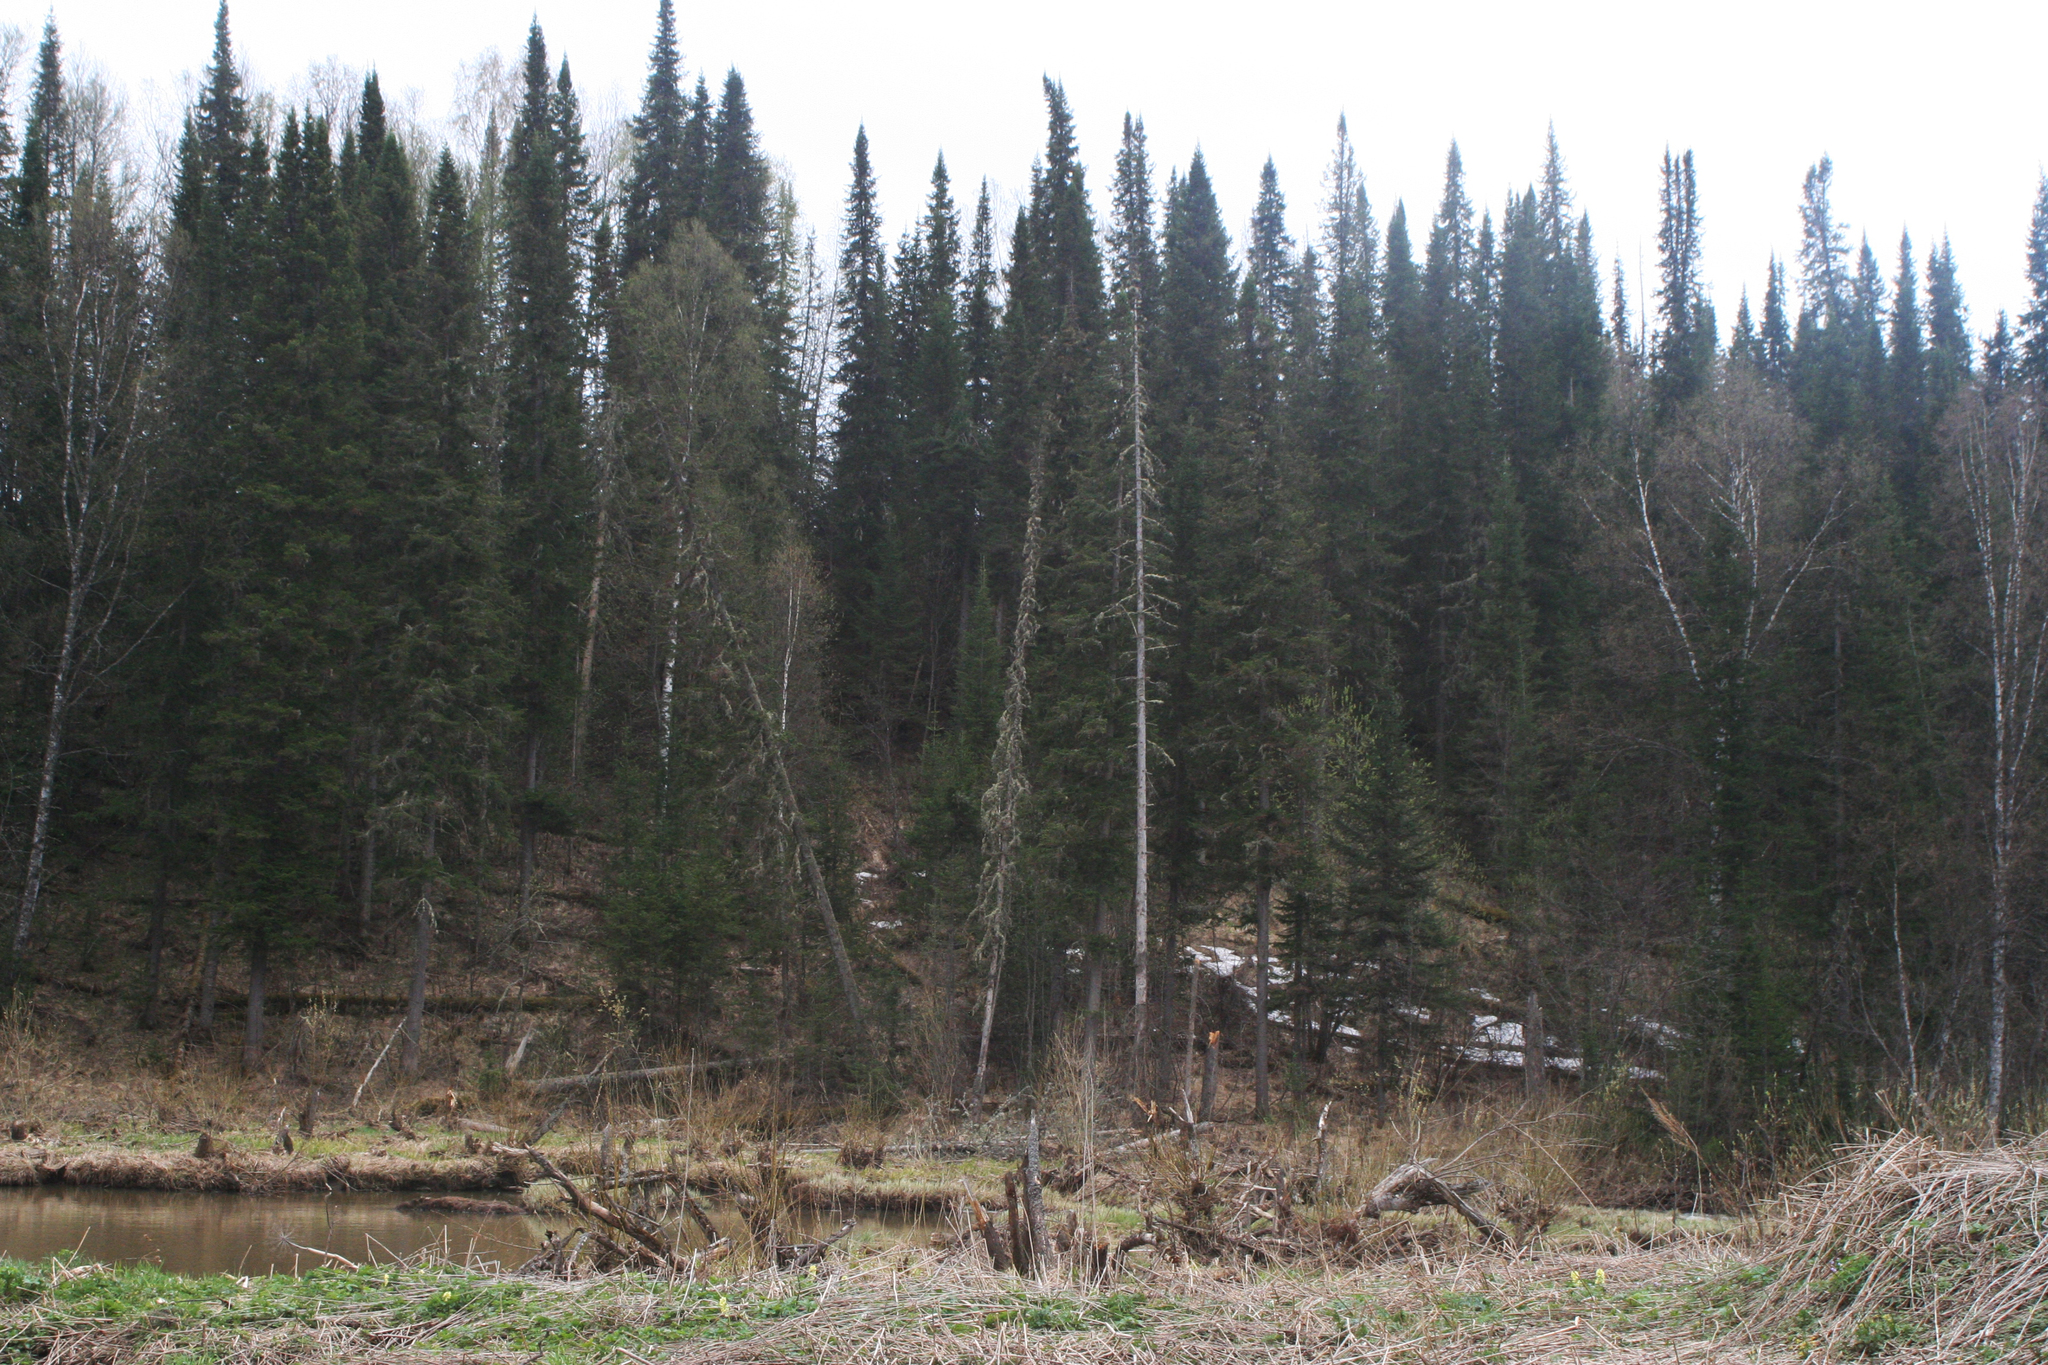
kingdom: Plantae
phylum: Tracheophyta
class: Pinopsida
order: Pinales
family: Pinaceae
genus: Abies
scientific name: Abies sibirica
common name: Siberian fir
